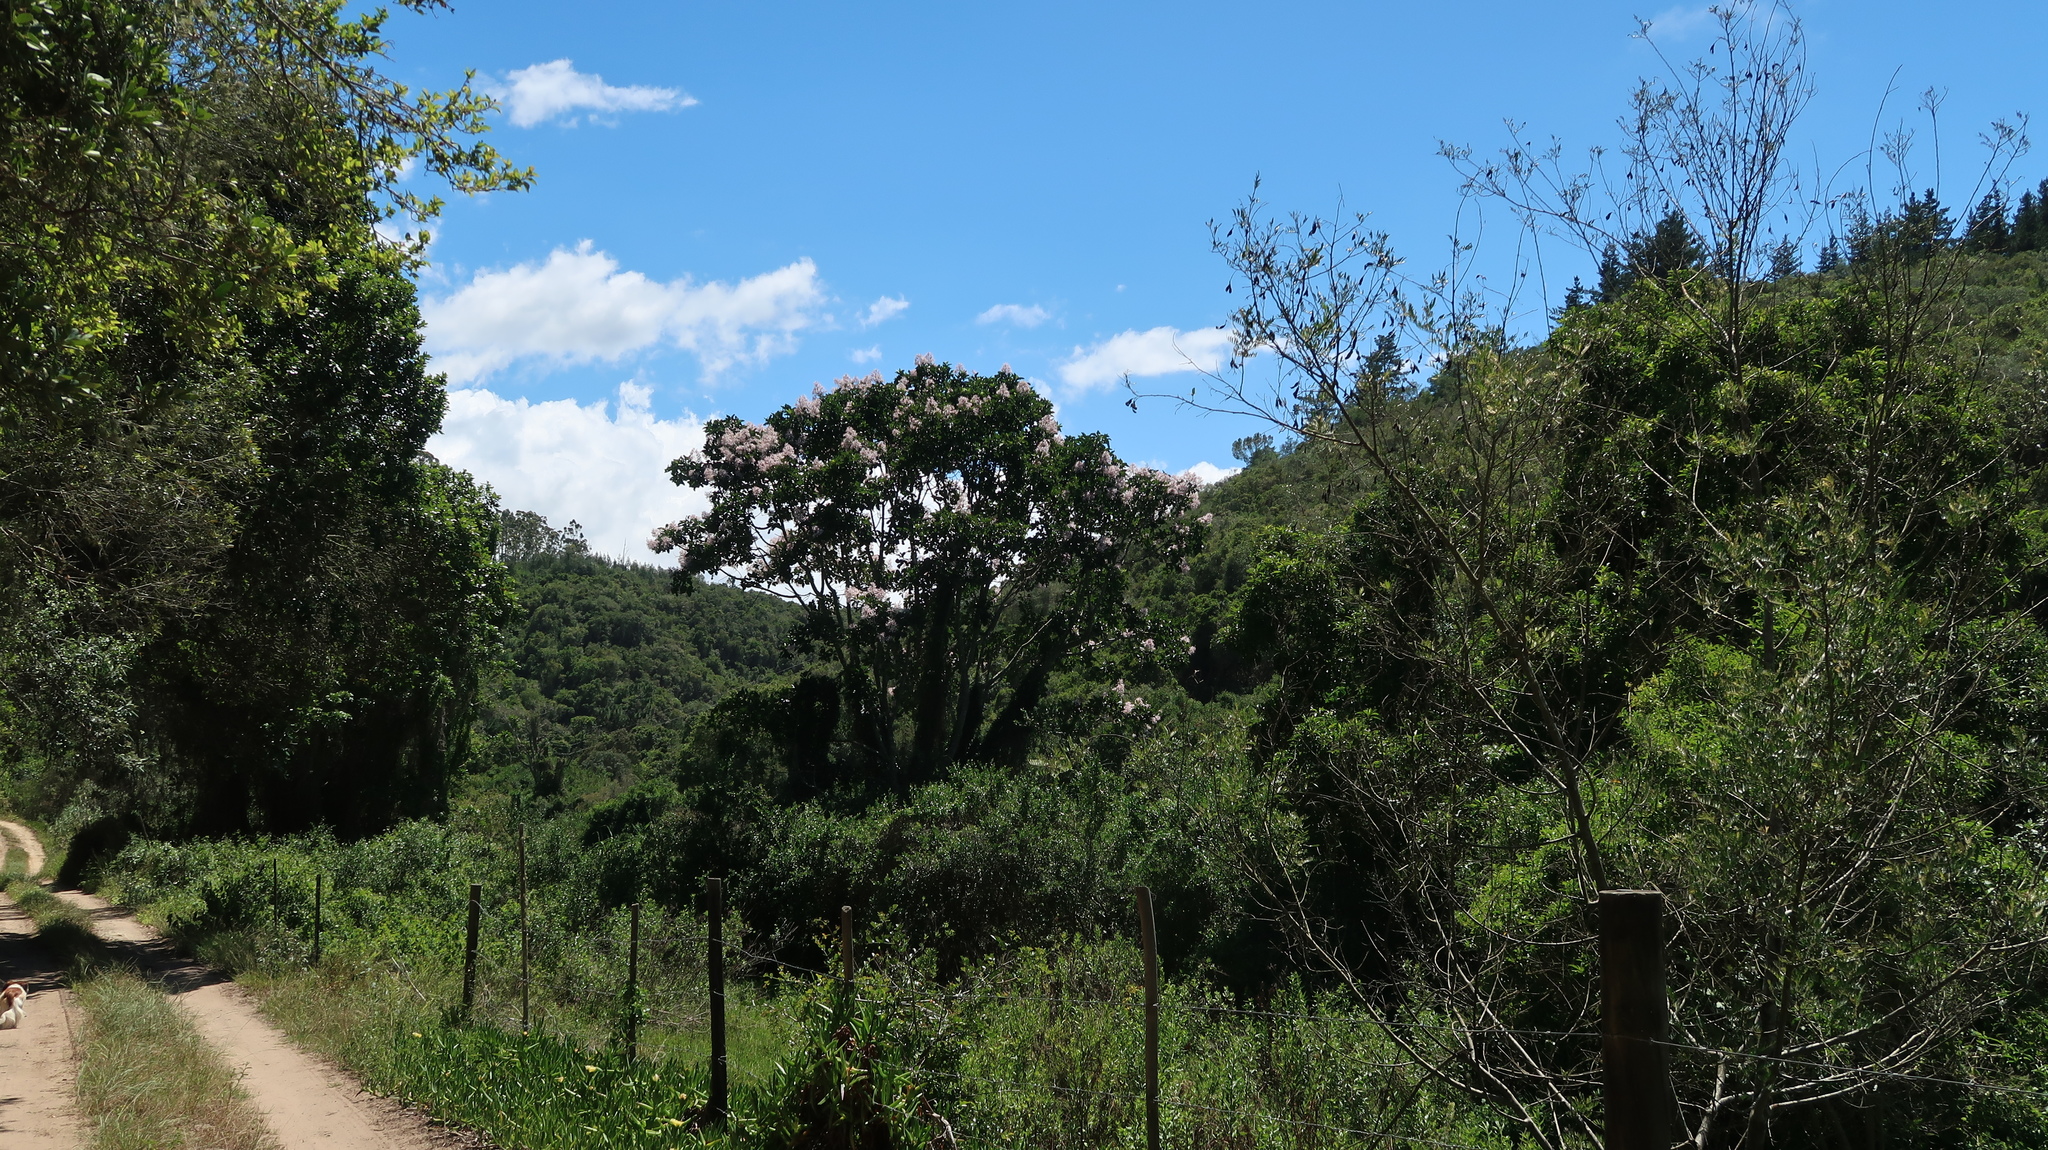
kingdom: Plantae
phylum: Tracheophyta
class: Magnoliopsida
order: Sapindales
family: Rutaceae
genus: Calodendrum
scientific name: Calodendrum capense
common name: Cape chestnut
